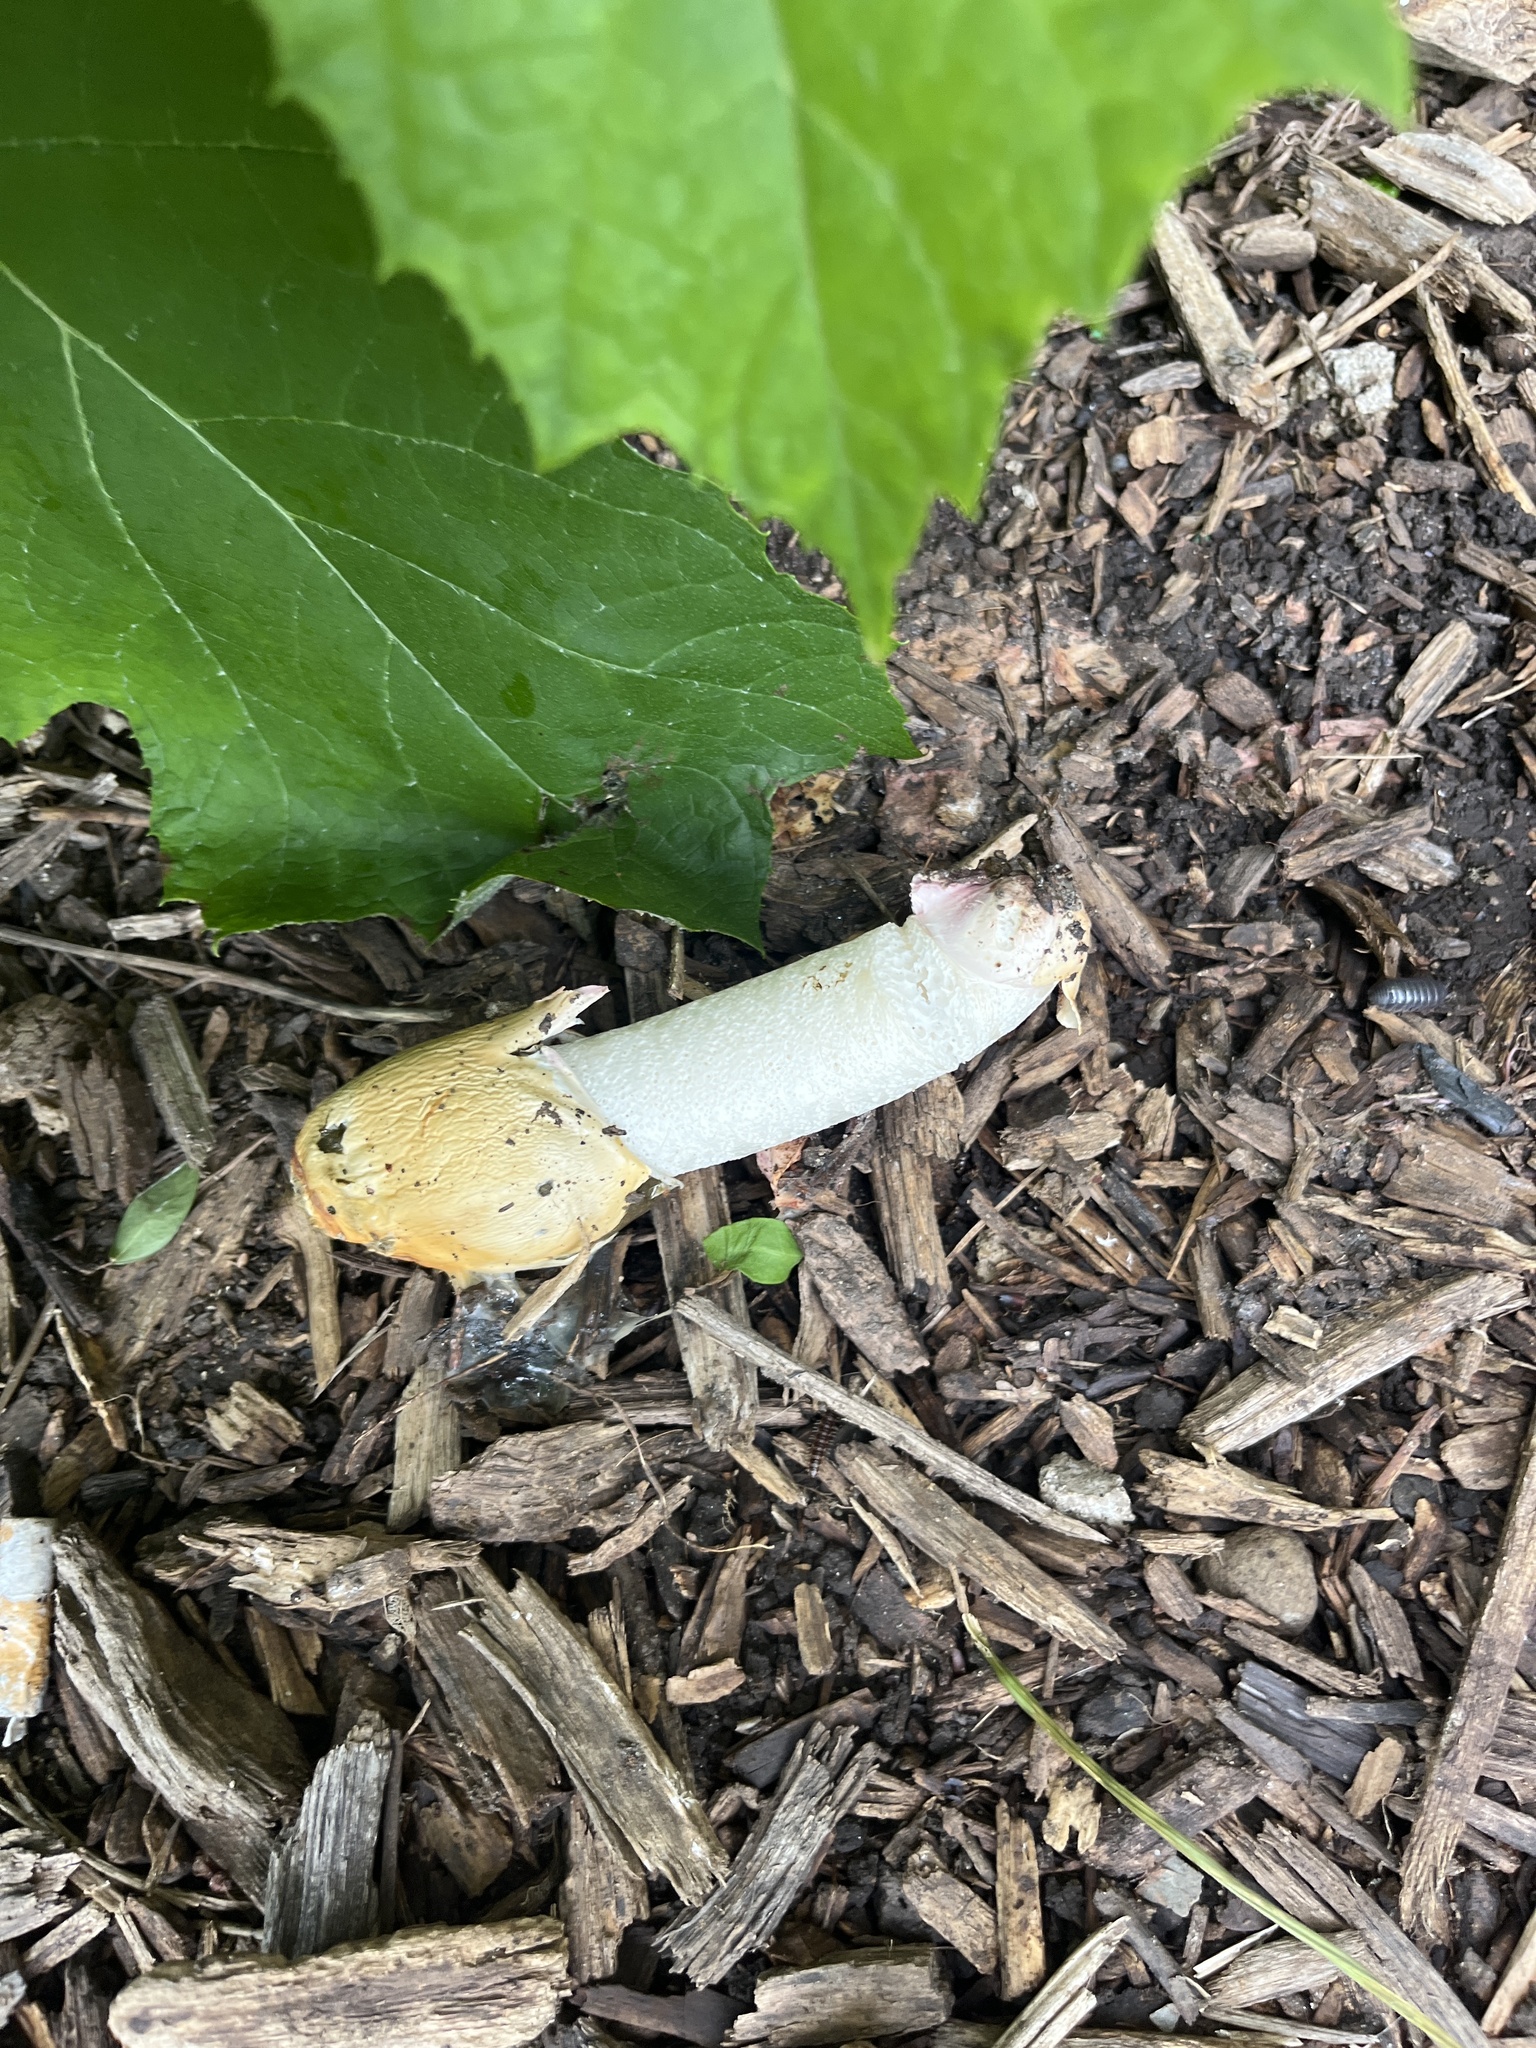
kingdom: Fungi
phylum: Basidiomycota
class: Agaricomycetes
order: Phallales
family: Phallaceae
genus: Phallus
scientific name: Phallus ravenelii
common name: Ravenel's stinkhorn
